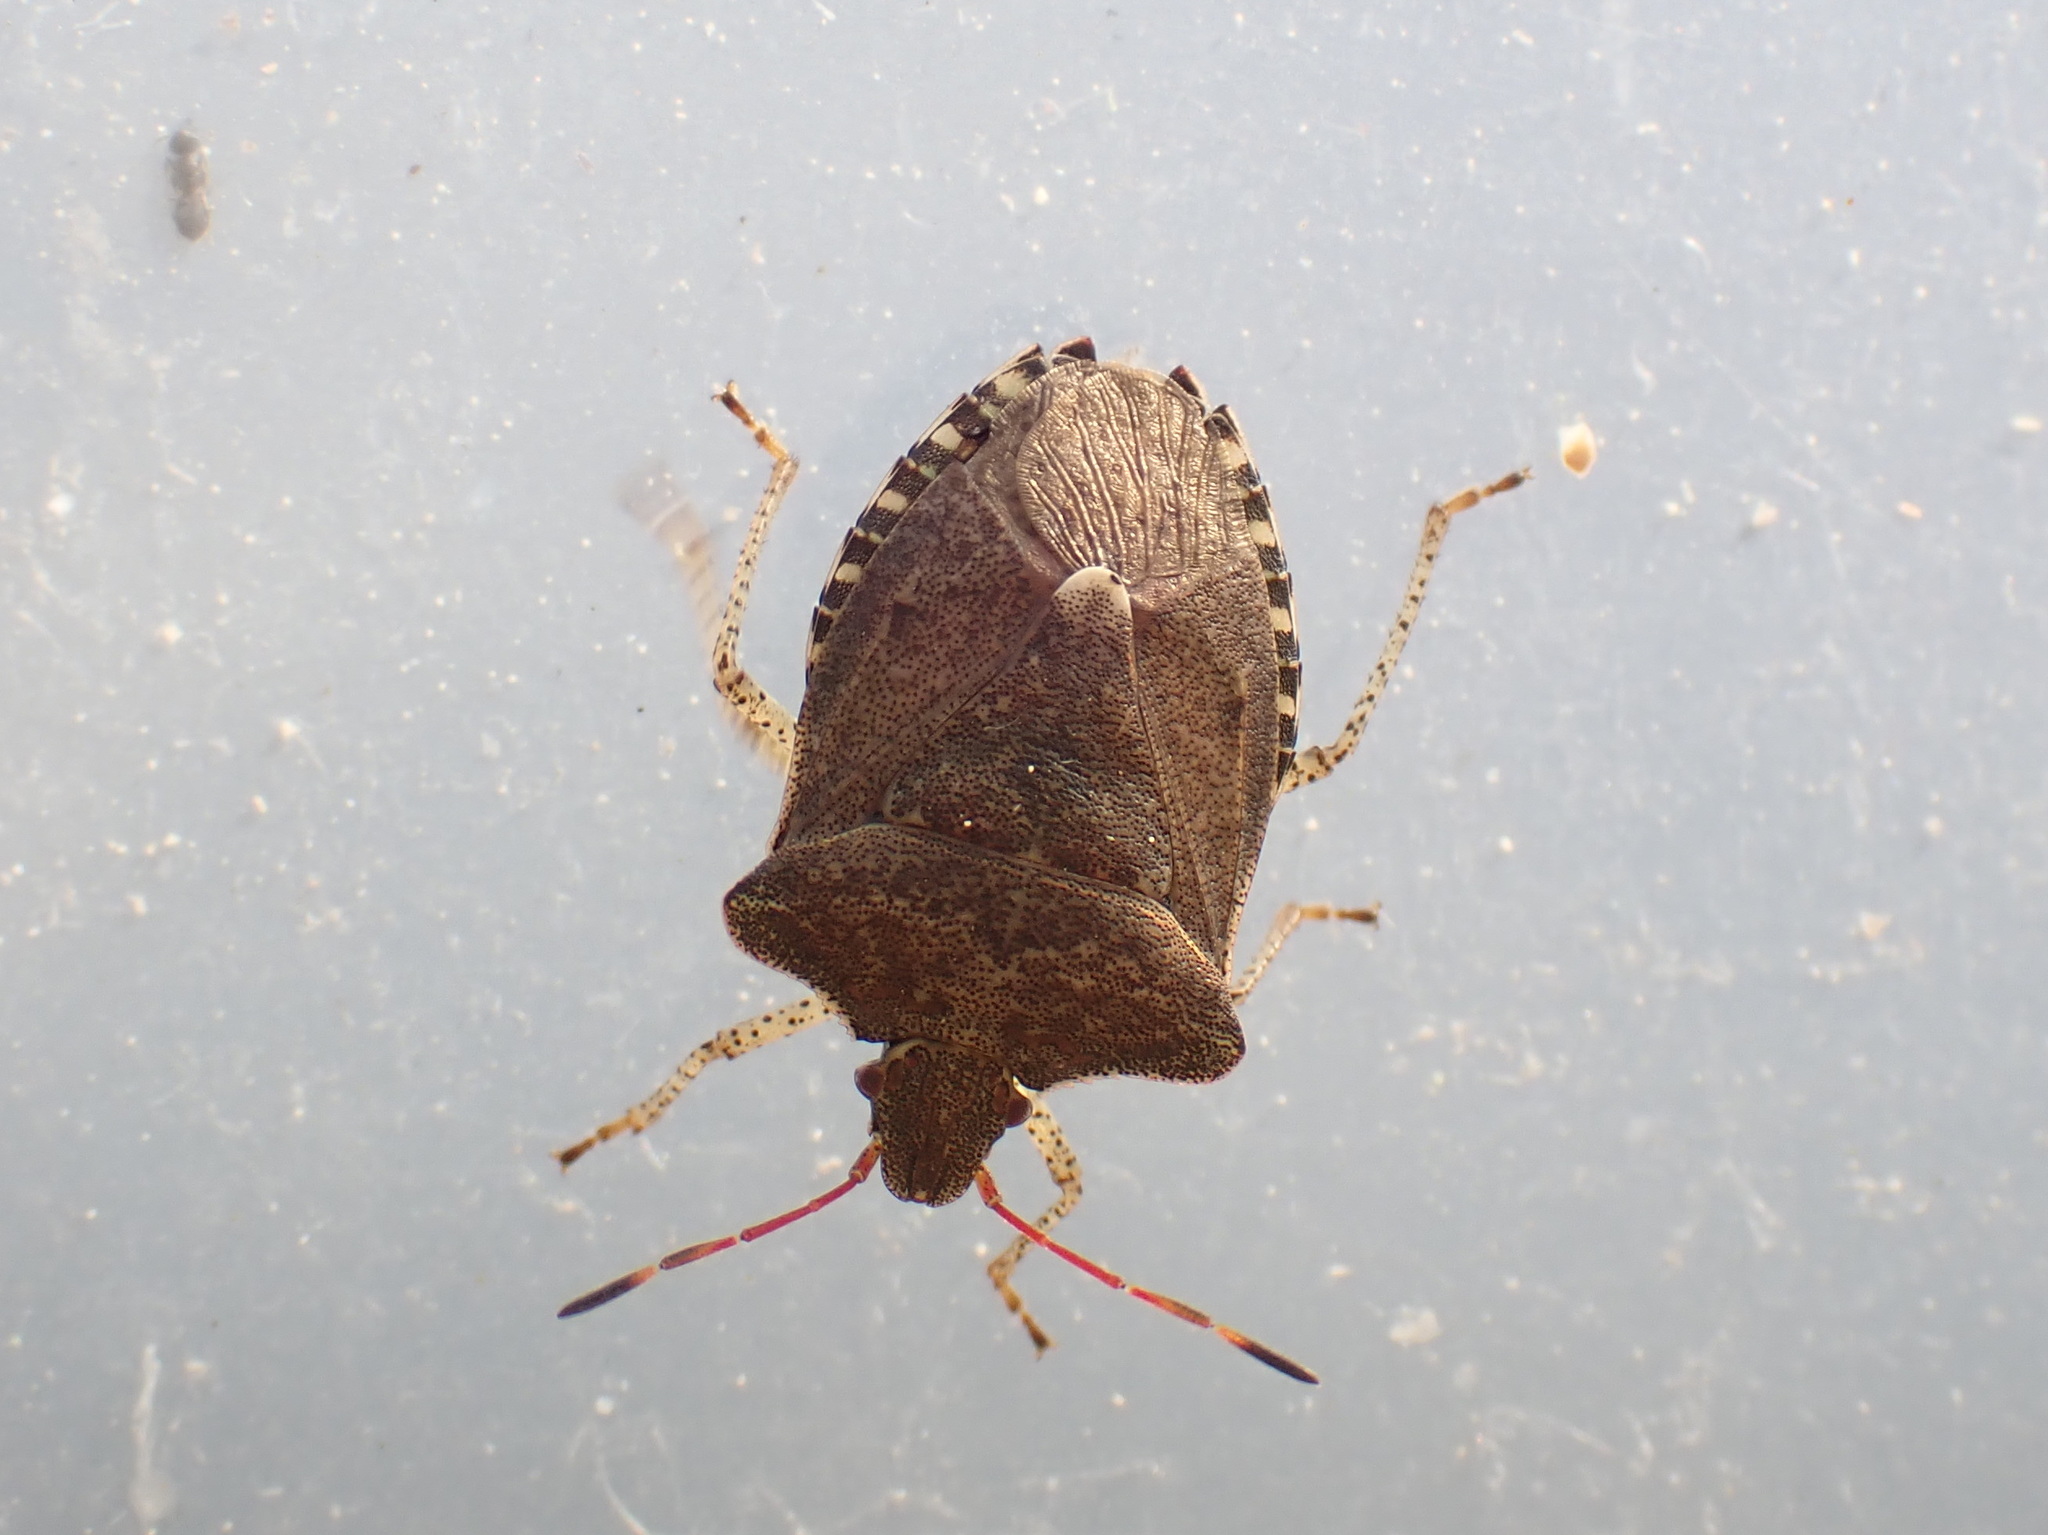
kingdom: Animalia
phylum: Arthropoda
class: Insecta
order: Hemiptera
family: Pentatomidae
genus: Euschistus
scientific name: Euschistus tristigmus
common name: Dusky stink bug
